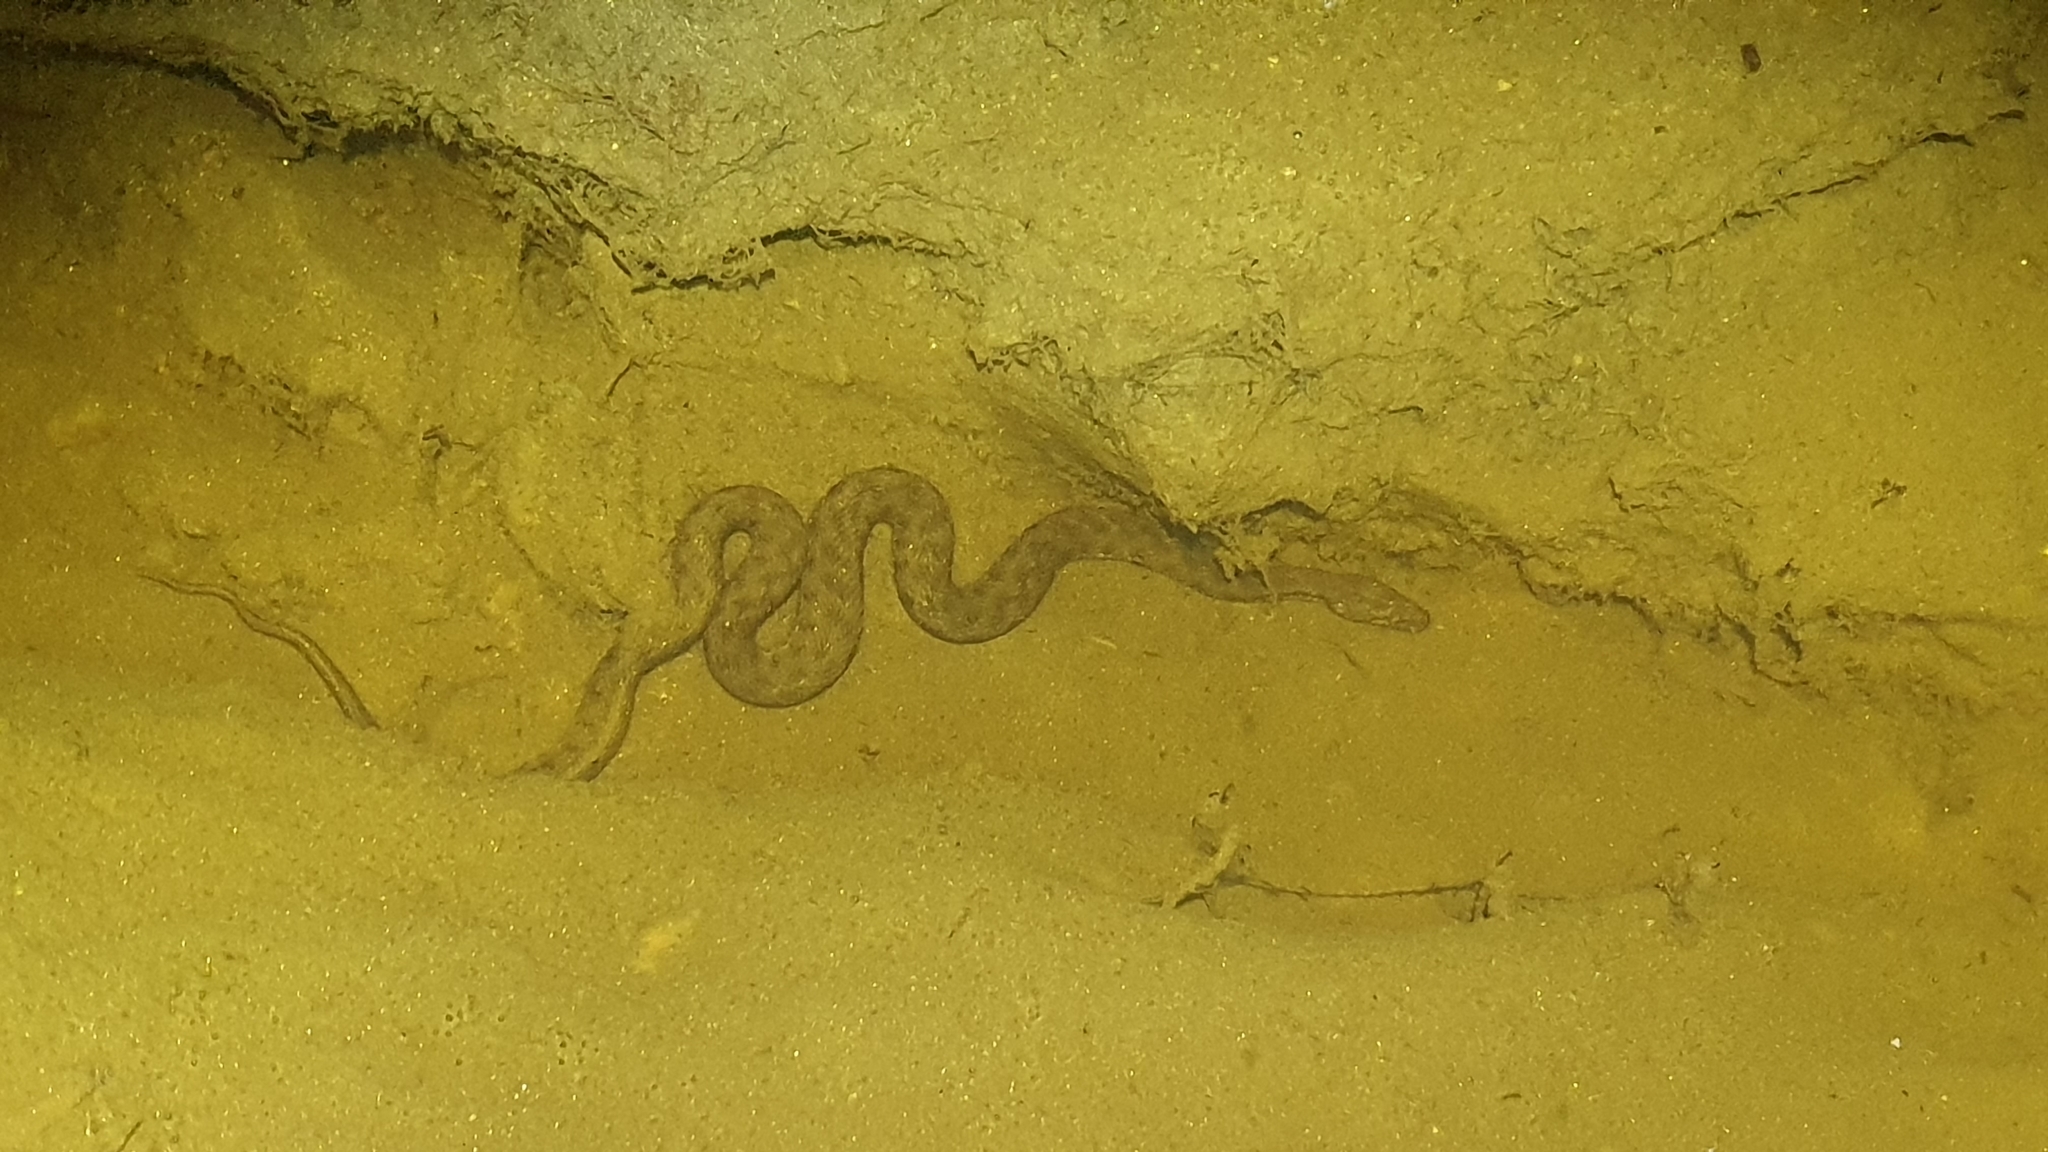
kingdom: Animalia
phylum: Chordata
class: Squamata
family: Colubridae
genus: Natrix
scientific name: Natrix maura
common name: Viperine water snake
